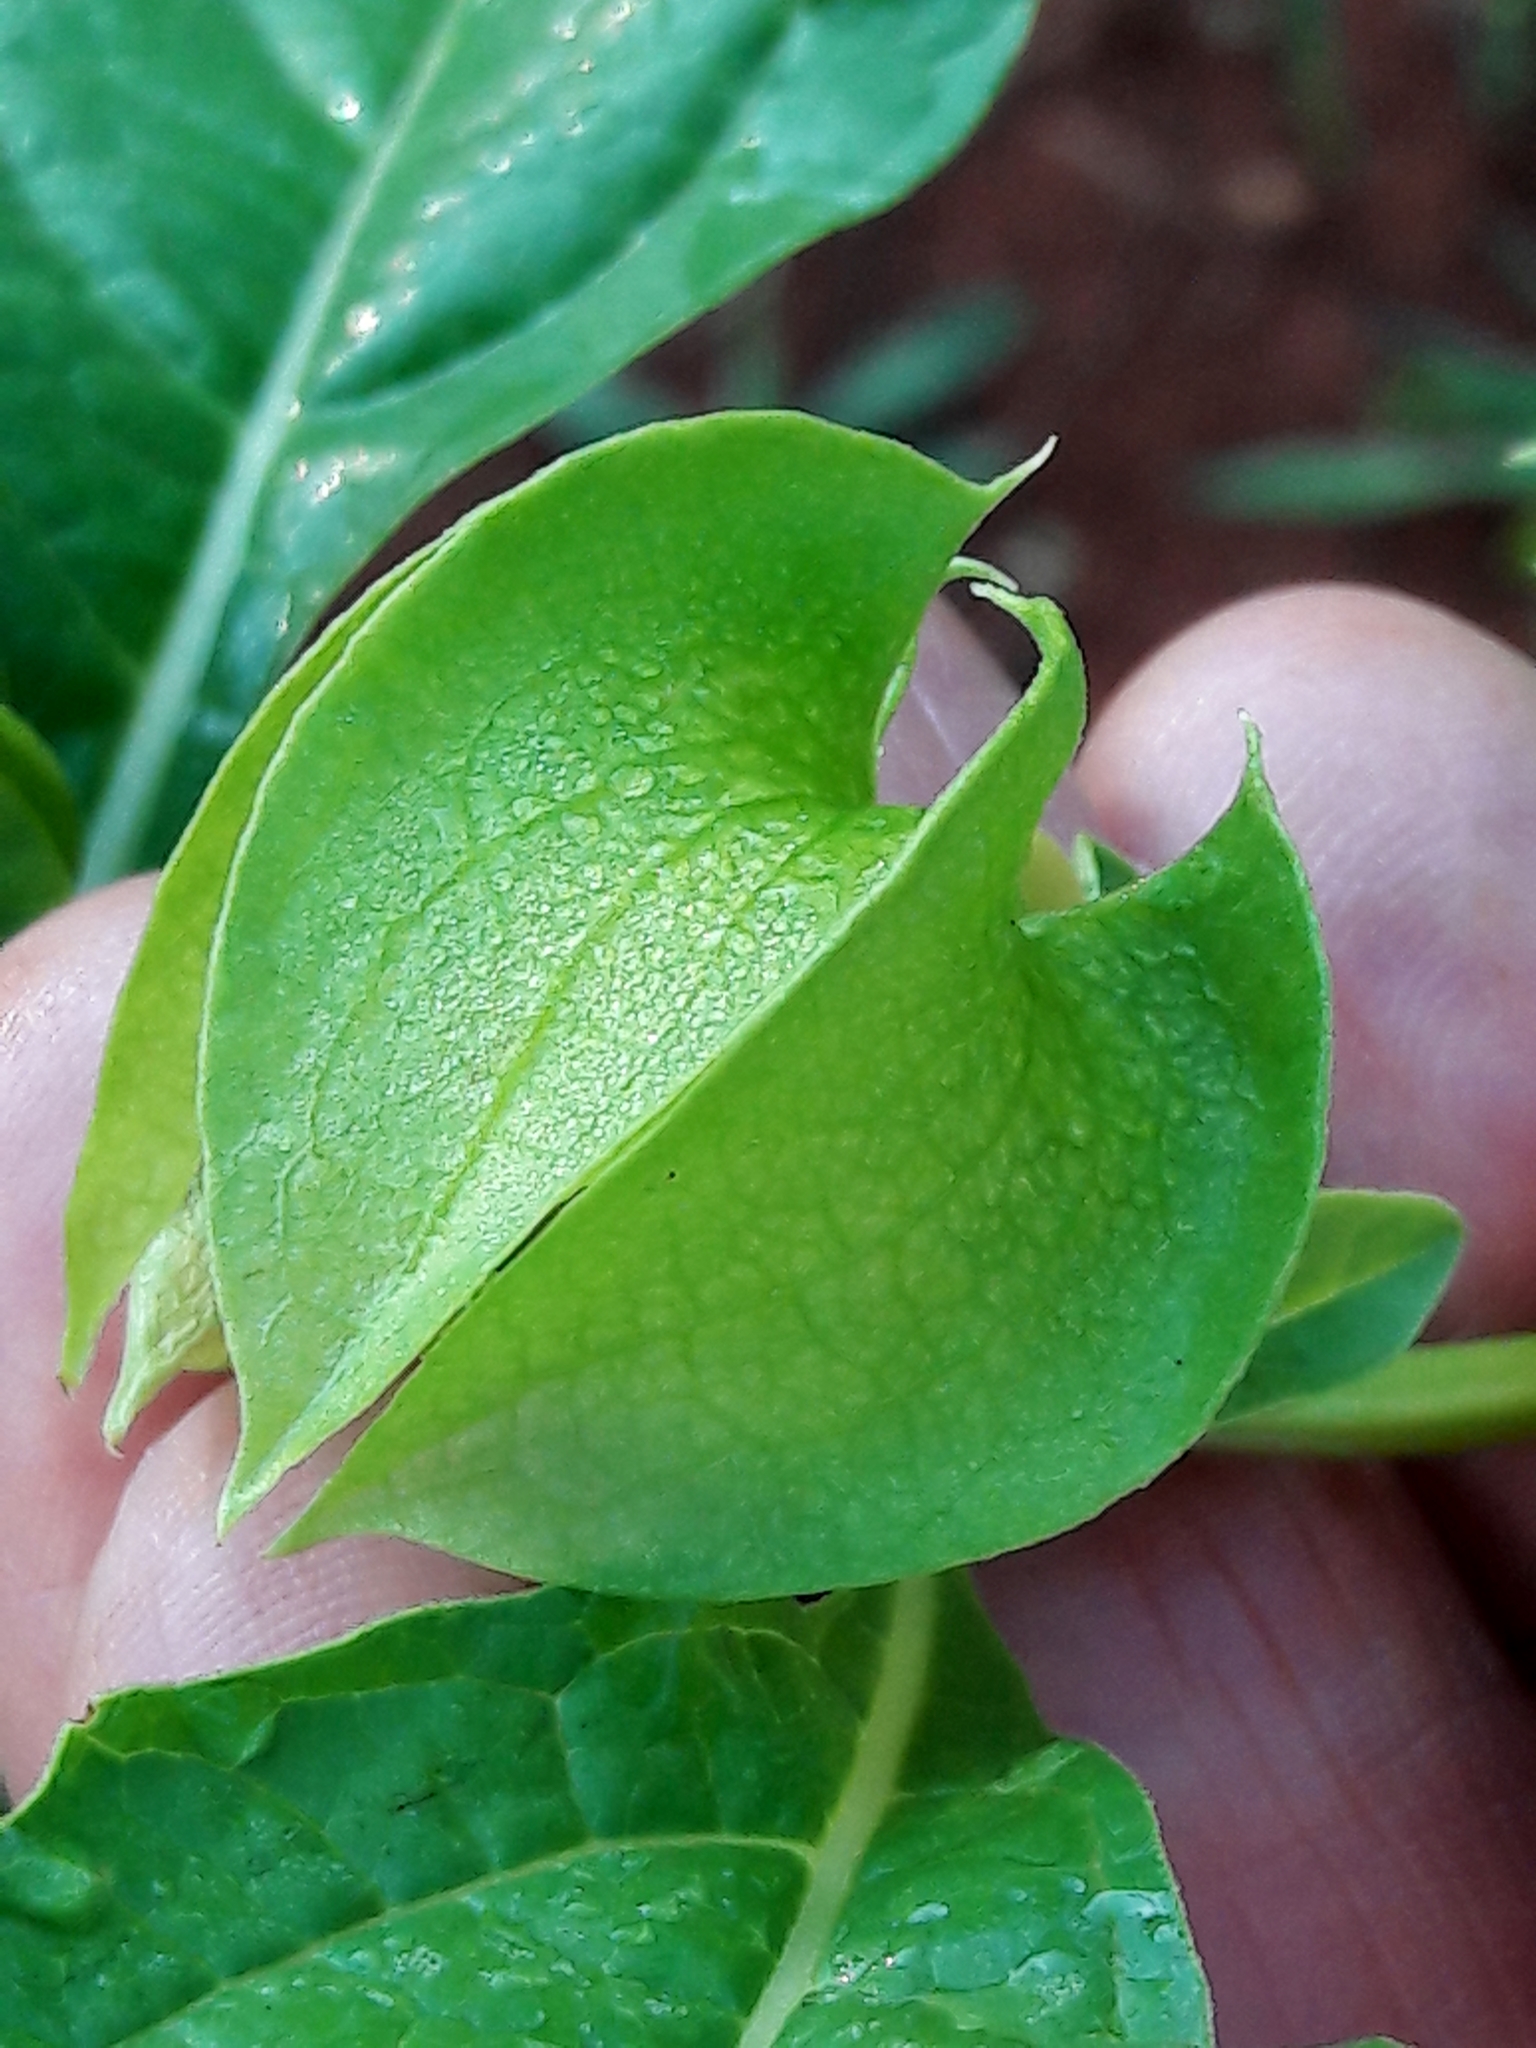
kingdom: Plantae
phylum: Tracheophyta
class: Magnoliopsida
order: Solanales
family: Solanaceae
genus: Nicandra
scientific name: Nicandra physalodes
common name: Apple-of-peru
